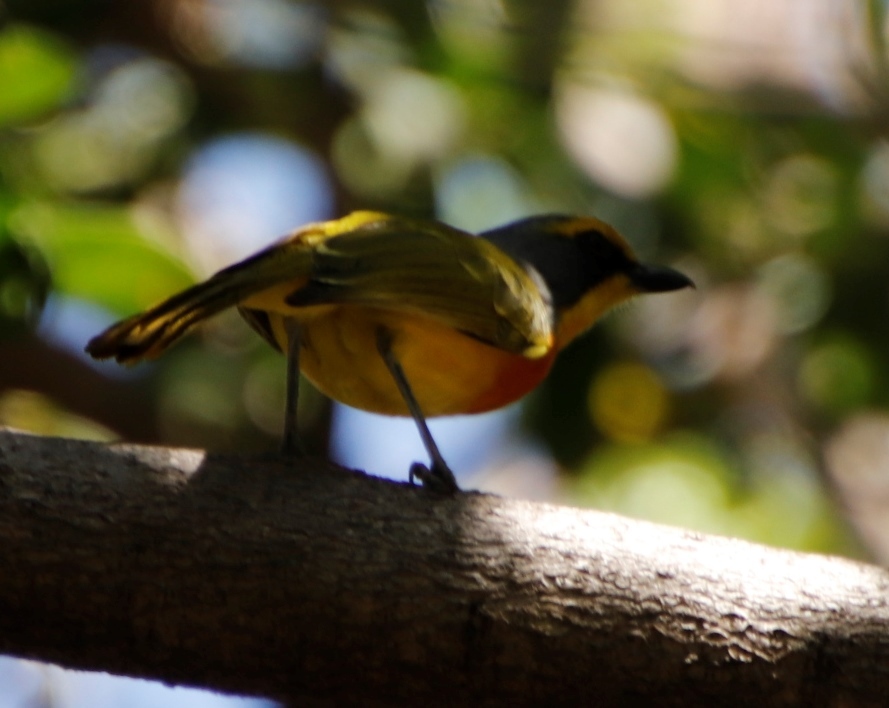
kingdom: Animalia
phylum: Chordata
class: Aves
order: Passeriformes
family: Malaconotidae
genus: Chlorophoneus
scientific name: Chlorophoneus sulfureopectus
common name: Orange-breasted bushshrike
